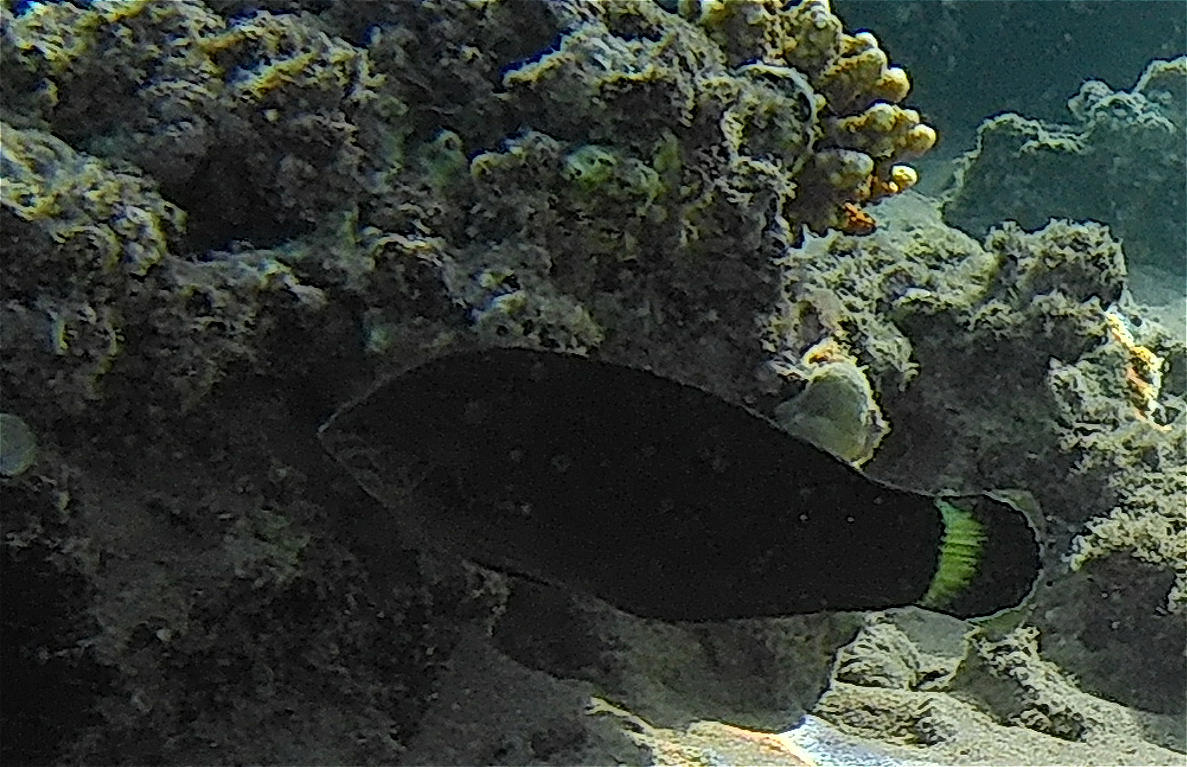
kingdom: Animalia
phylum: Chordata
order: Perciformes
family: Labridae
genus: Halichoeres
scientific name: Halichoeres marginatus
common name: Dusky wrasse
